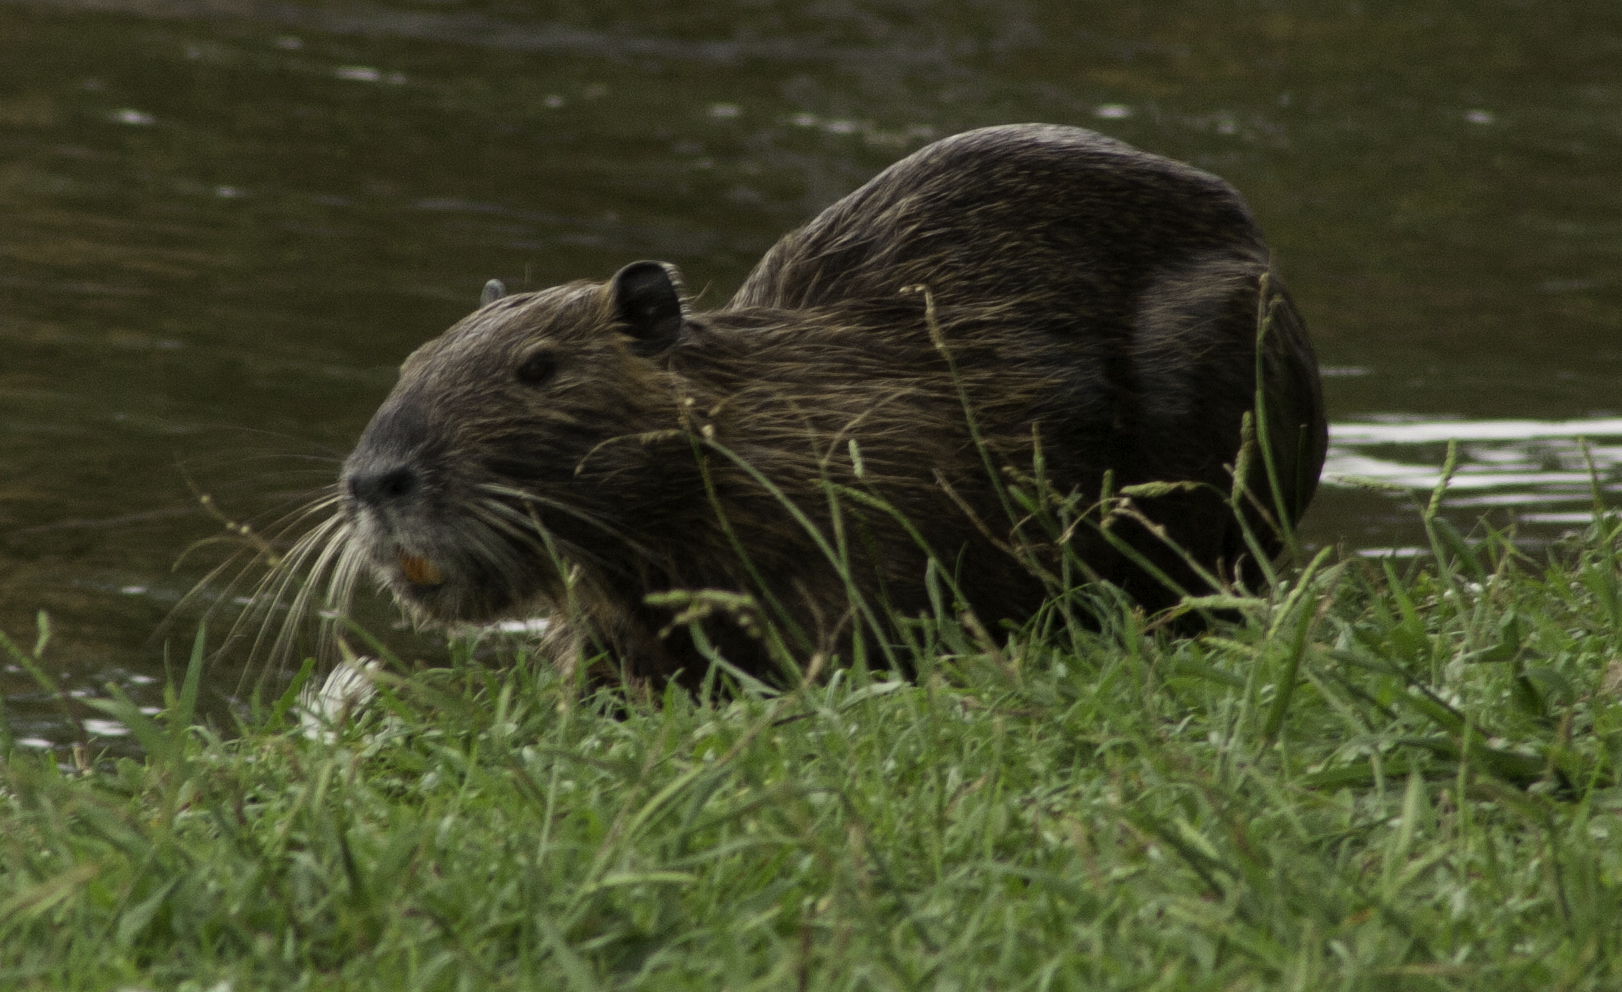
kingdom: Animalia
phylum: Chordata
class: Mammalia
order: Rodentia
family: Myocastoridae
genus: Myocastor
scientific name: Myocastor coypus
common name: Coypu
